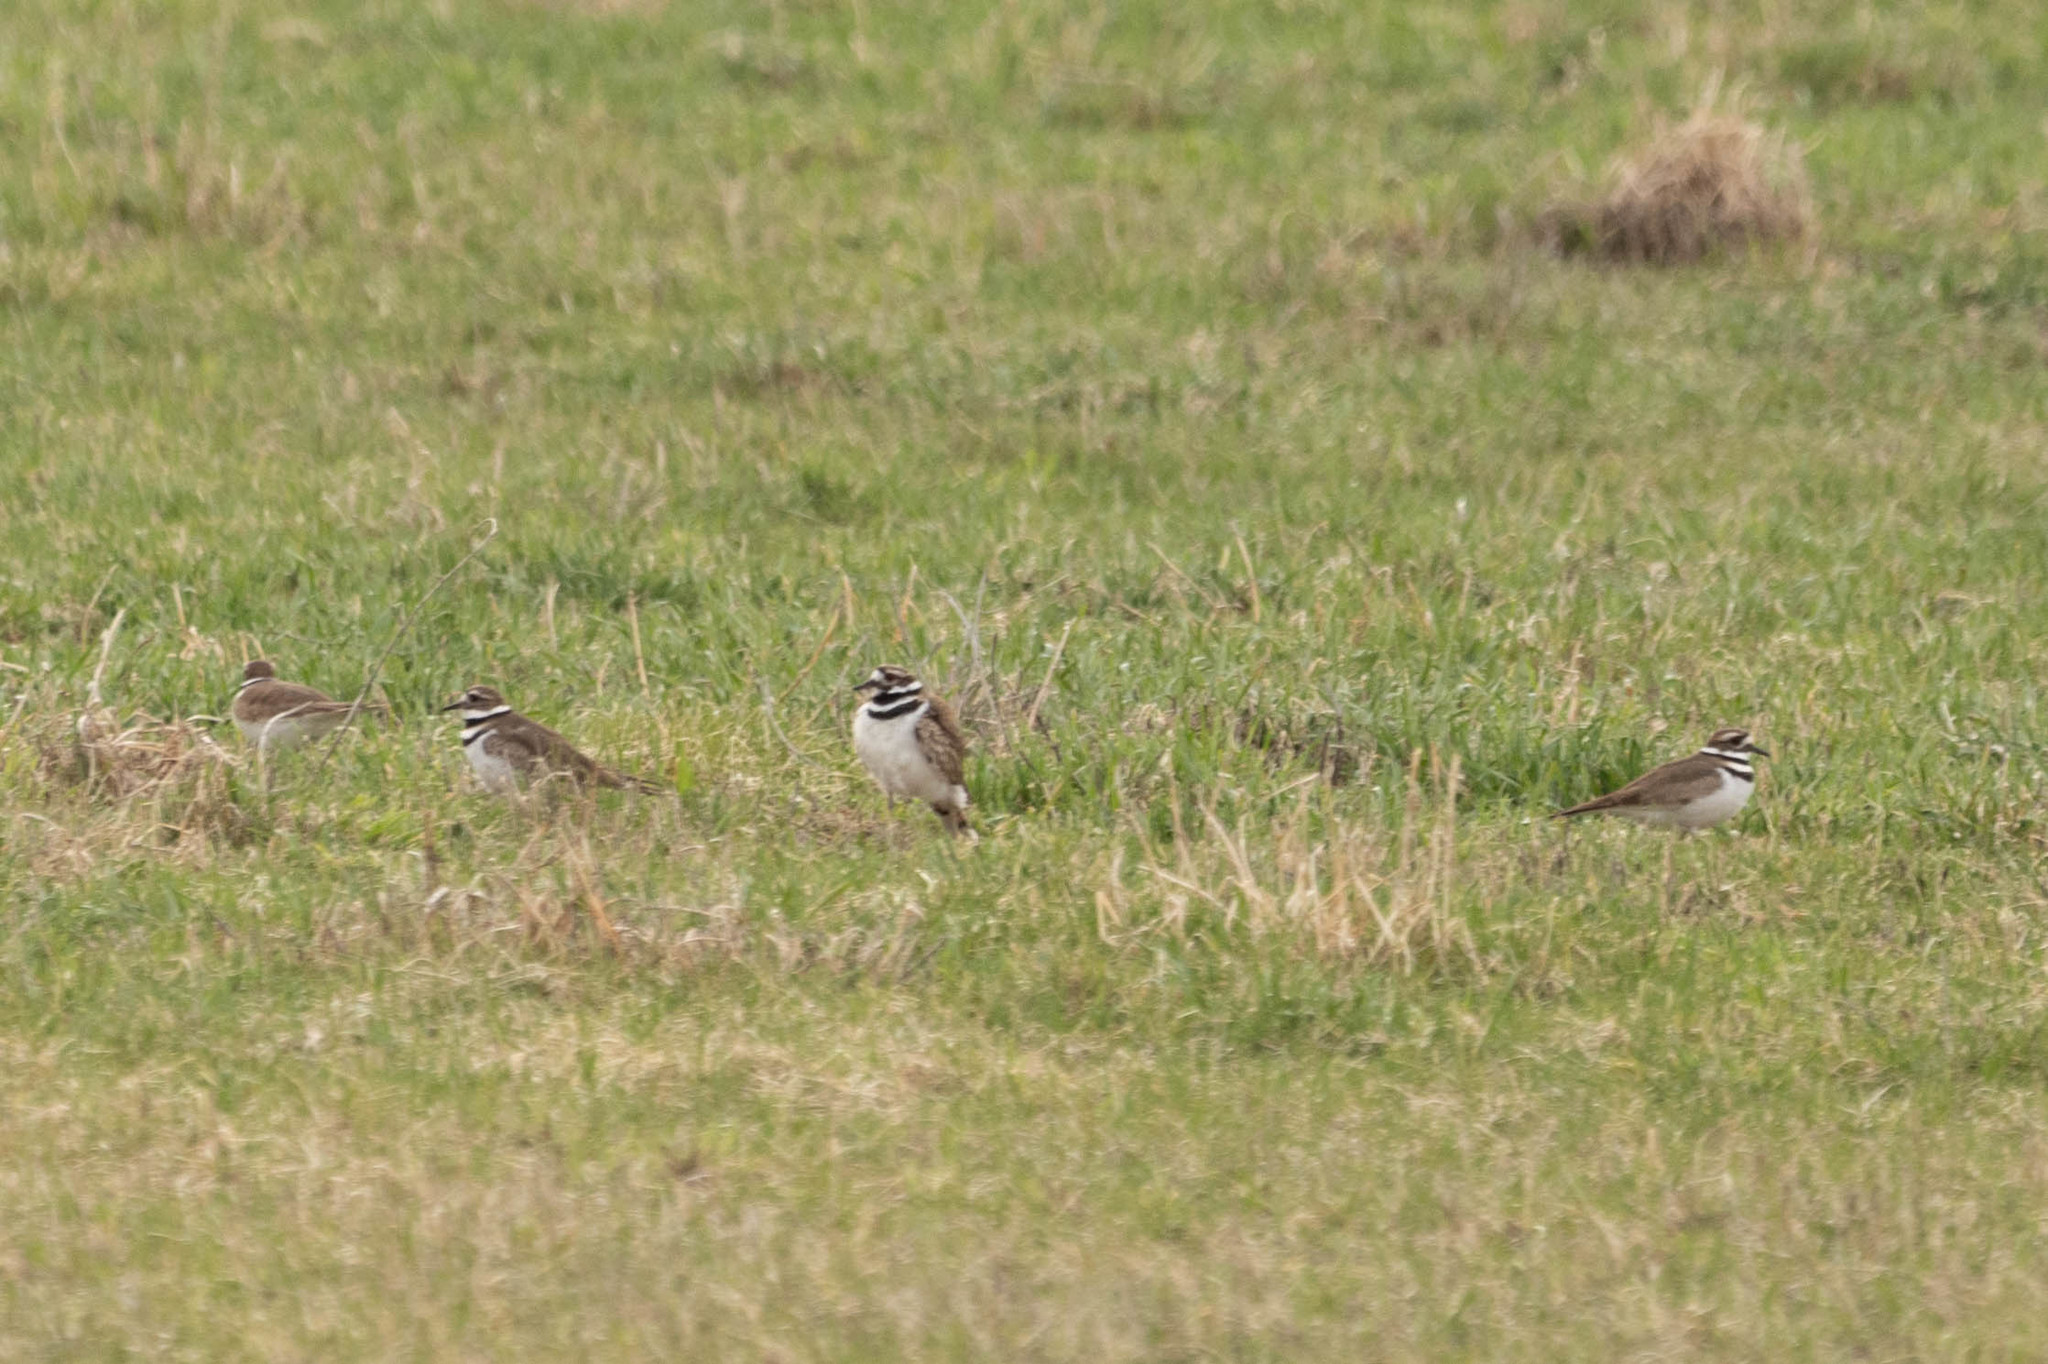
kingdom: Animalia
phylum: Chordata
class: Aves
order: Charadriiformes
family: Charadriidae
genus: Charadrius
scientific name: Charadrius vociferus
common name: Killdeer
